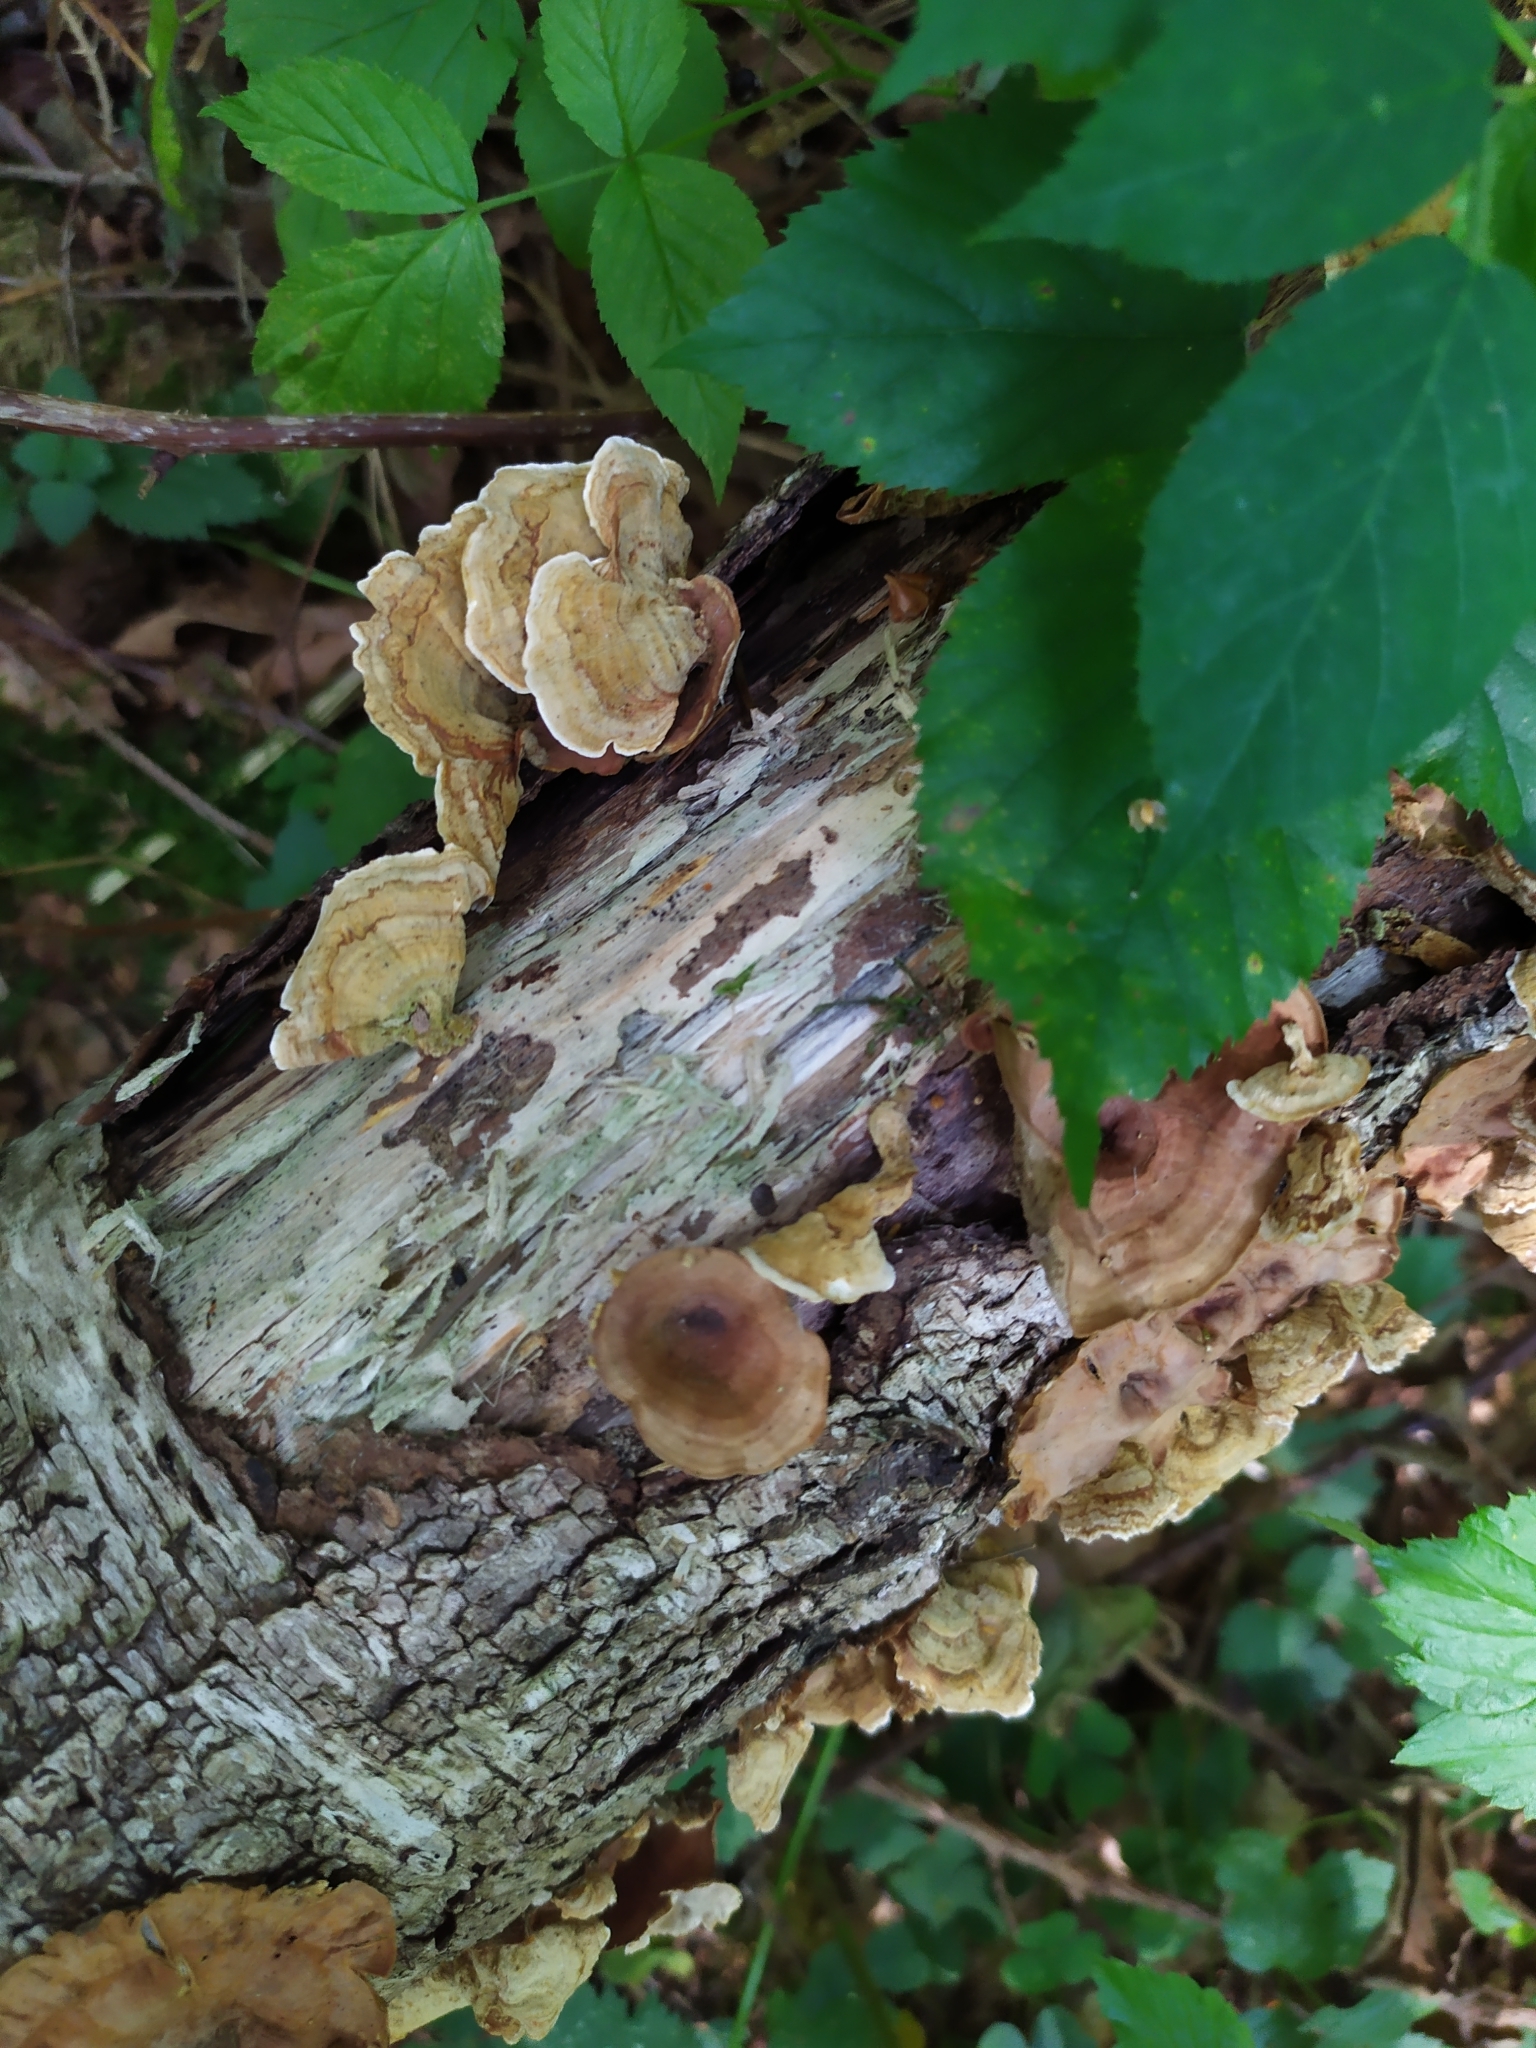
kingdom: Fungi
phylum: Basidiomycota
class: Agaricomycetes
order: Russulales
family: Stereaceae
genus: Stereum
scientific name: Stereum subtomentosum
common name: Yellowing curtain crust
